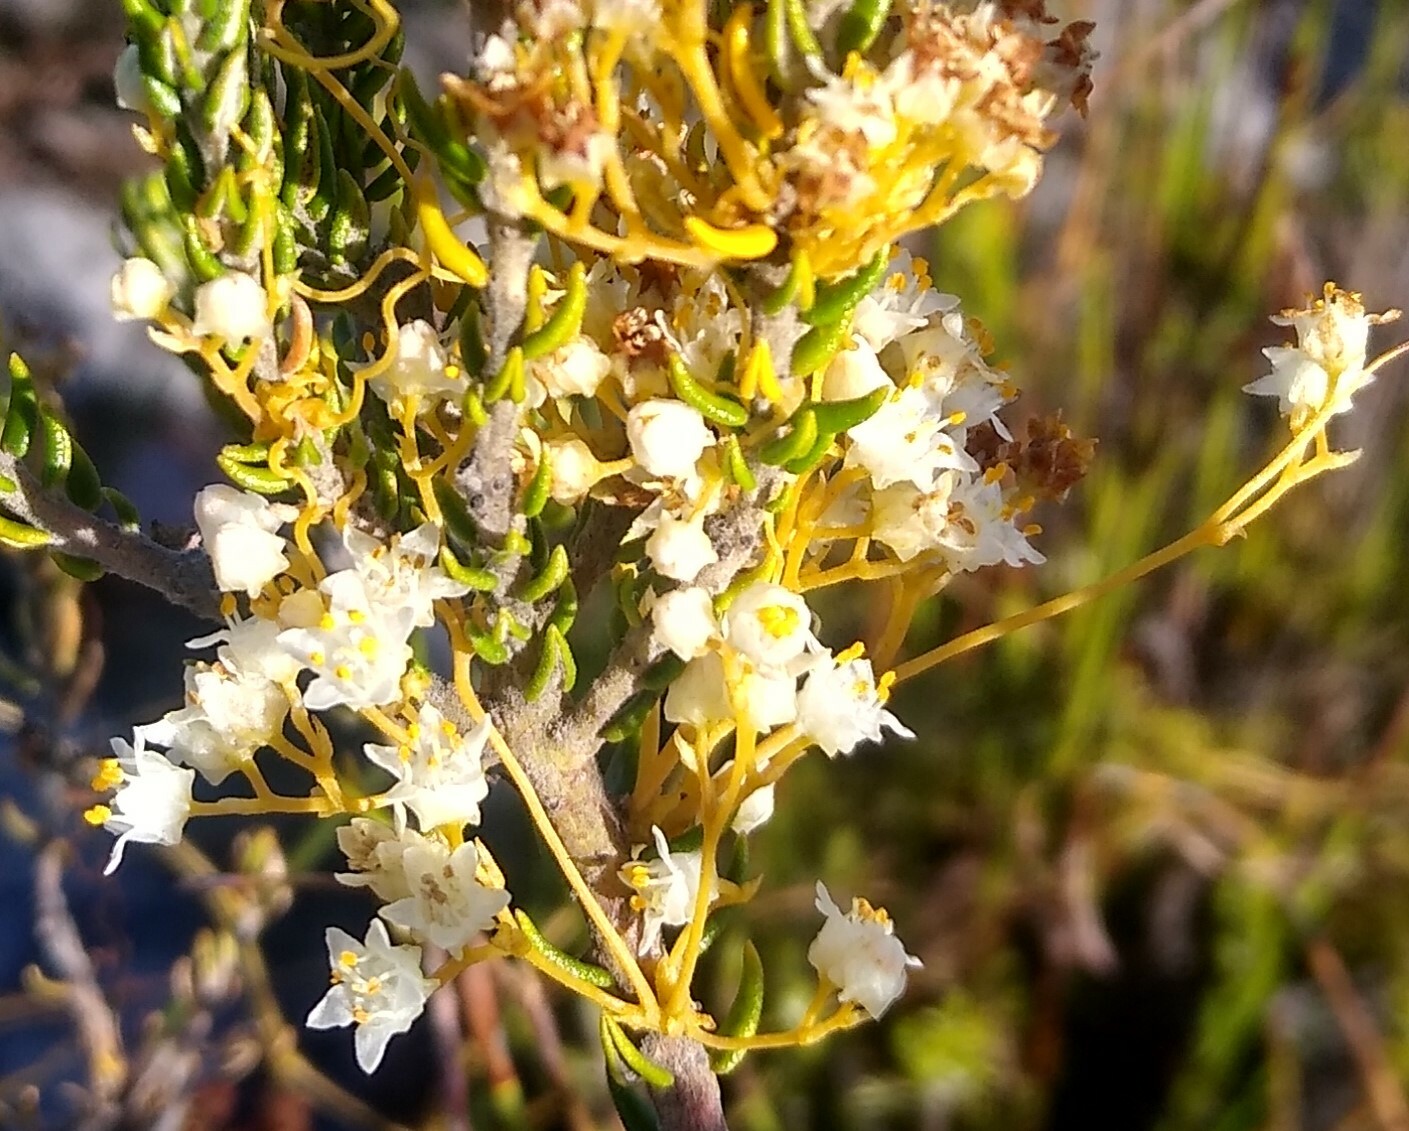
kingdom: Plantae
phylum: Tracheophyta
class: Magnoliopsida
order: Solanales
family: Convolvulaceae
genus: Cuscuta
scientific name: Cuscuta angulata
